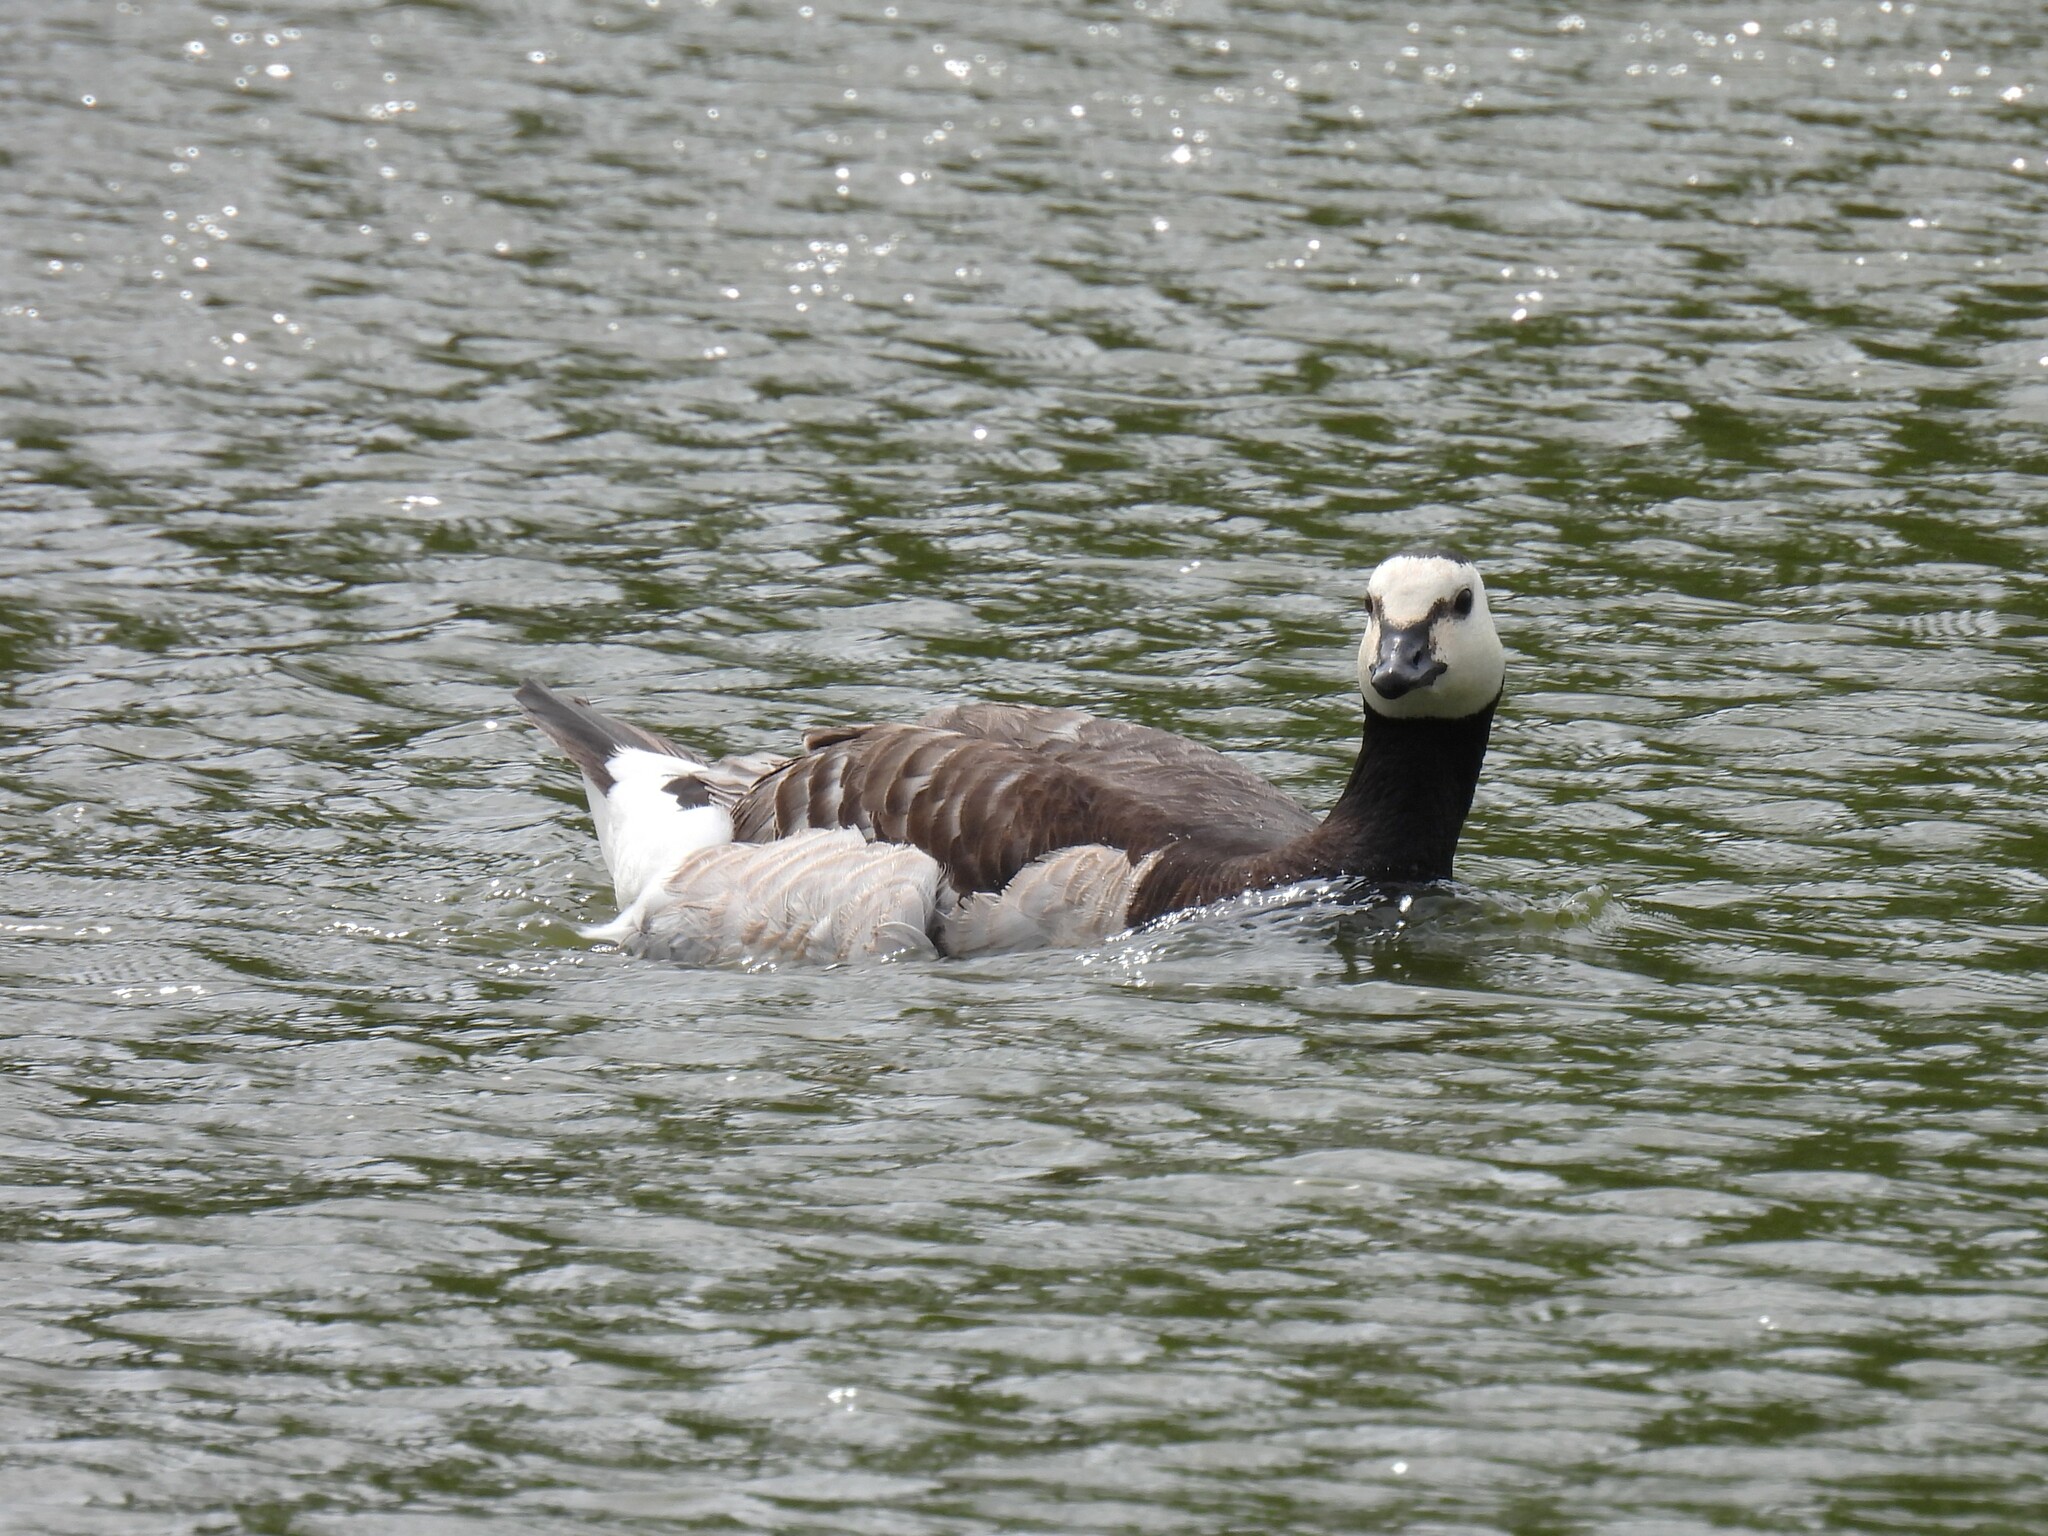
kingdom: Animalia
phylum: Chordata
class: Aves
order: Anseriformes
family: Anatidae
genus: Branta
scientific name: Branta leucopsis
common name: Barnacle goose
